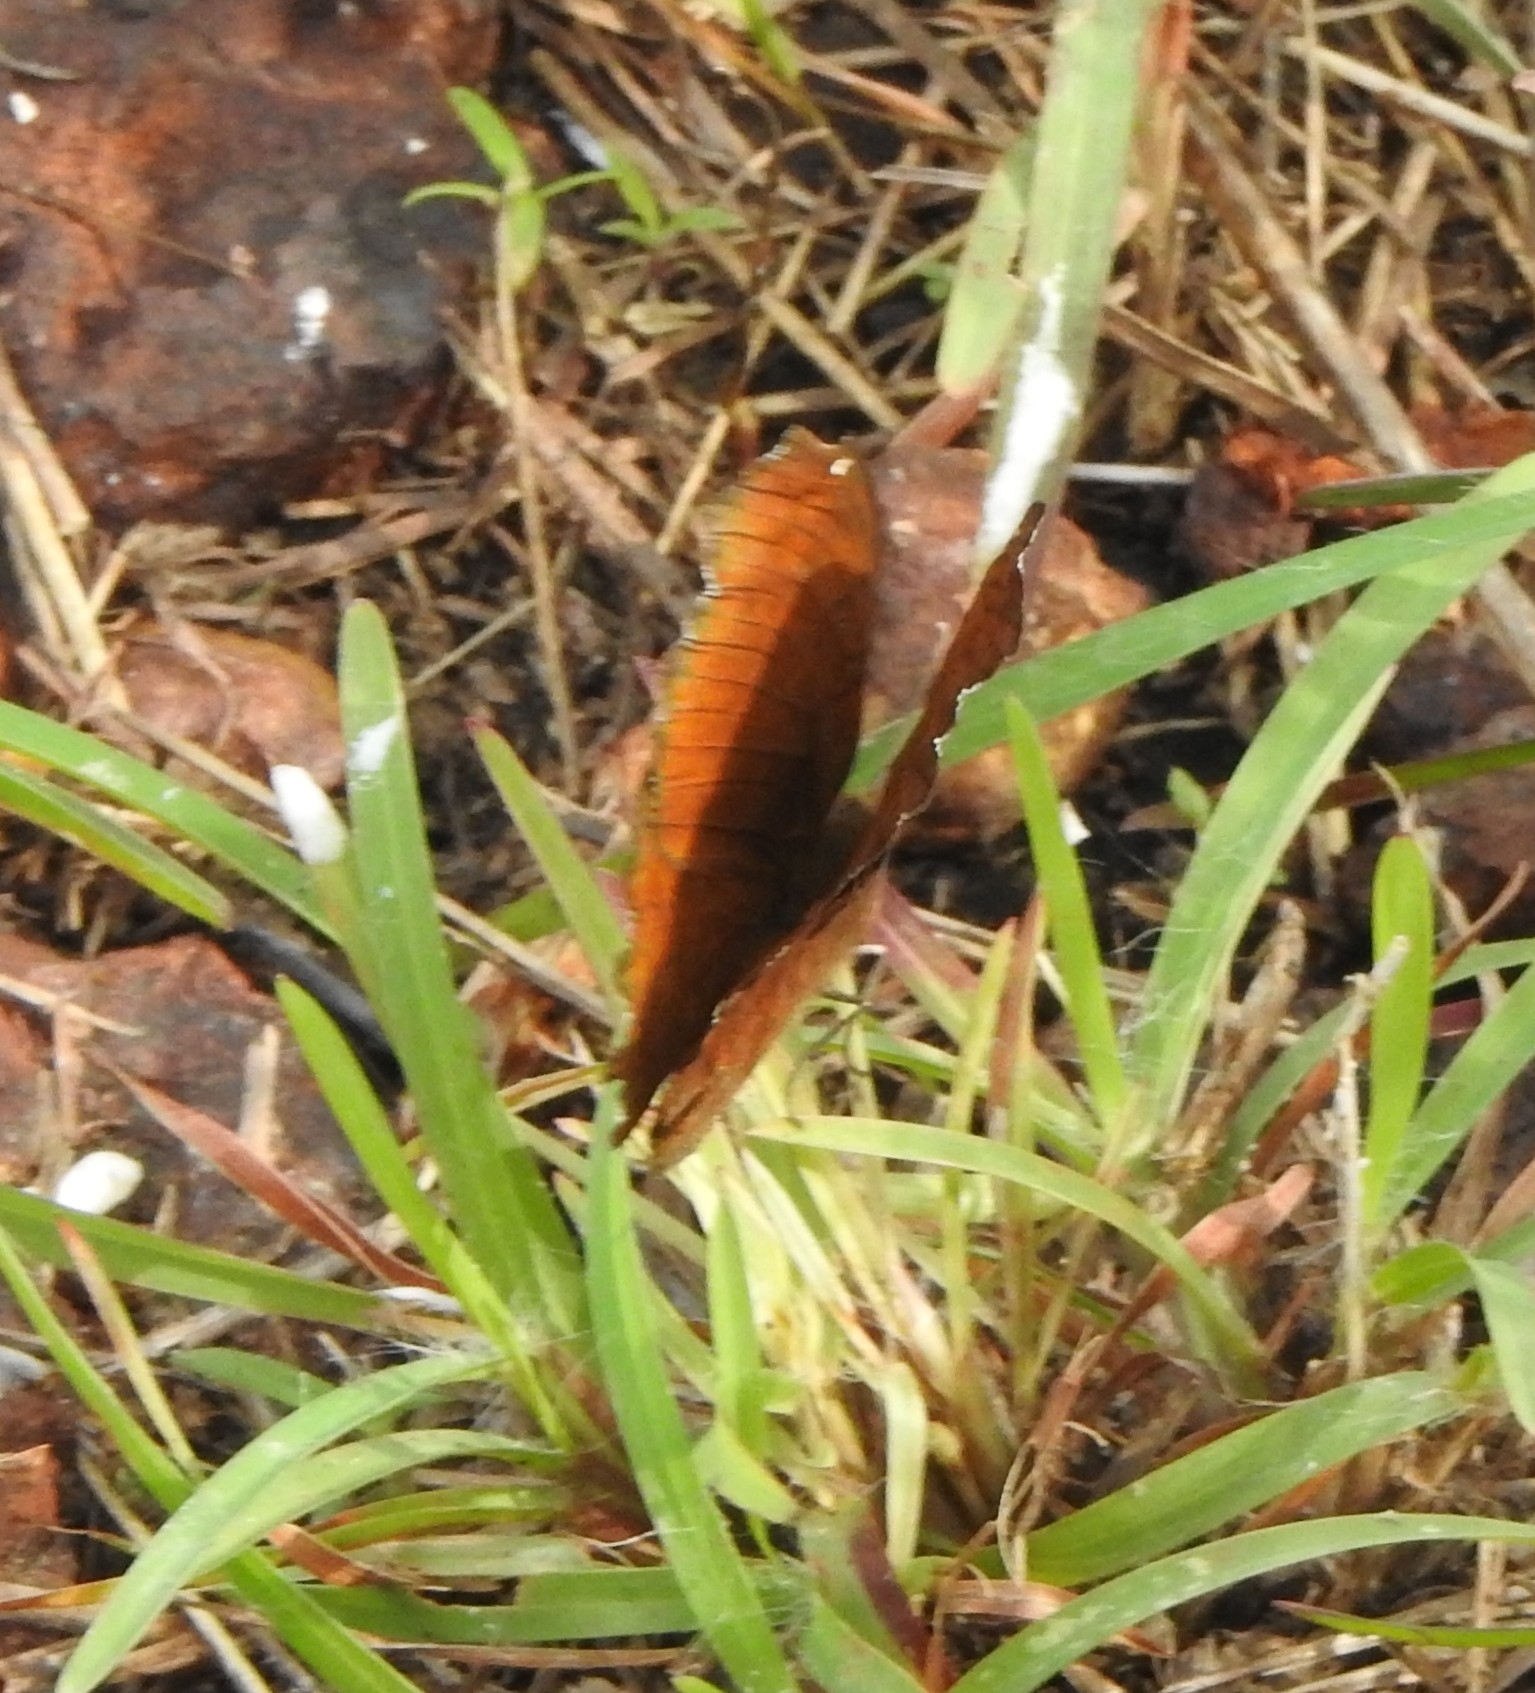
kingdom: Animalia
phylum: Arthropoda
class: Insecta
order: Lepidoptera
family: Nymphalidae
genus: Ariadne
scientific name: Ariadne ariadne
